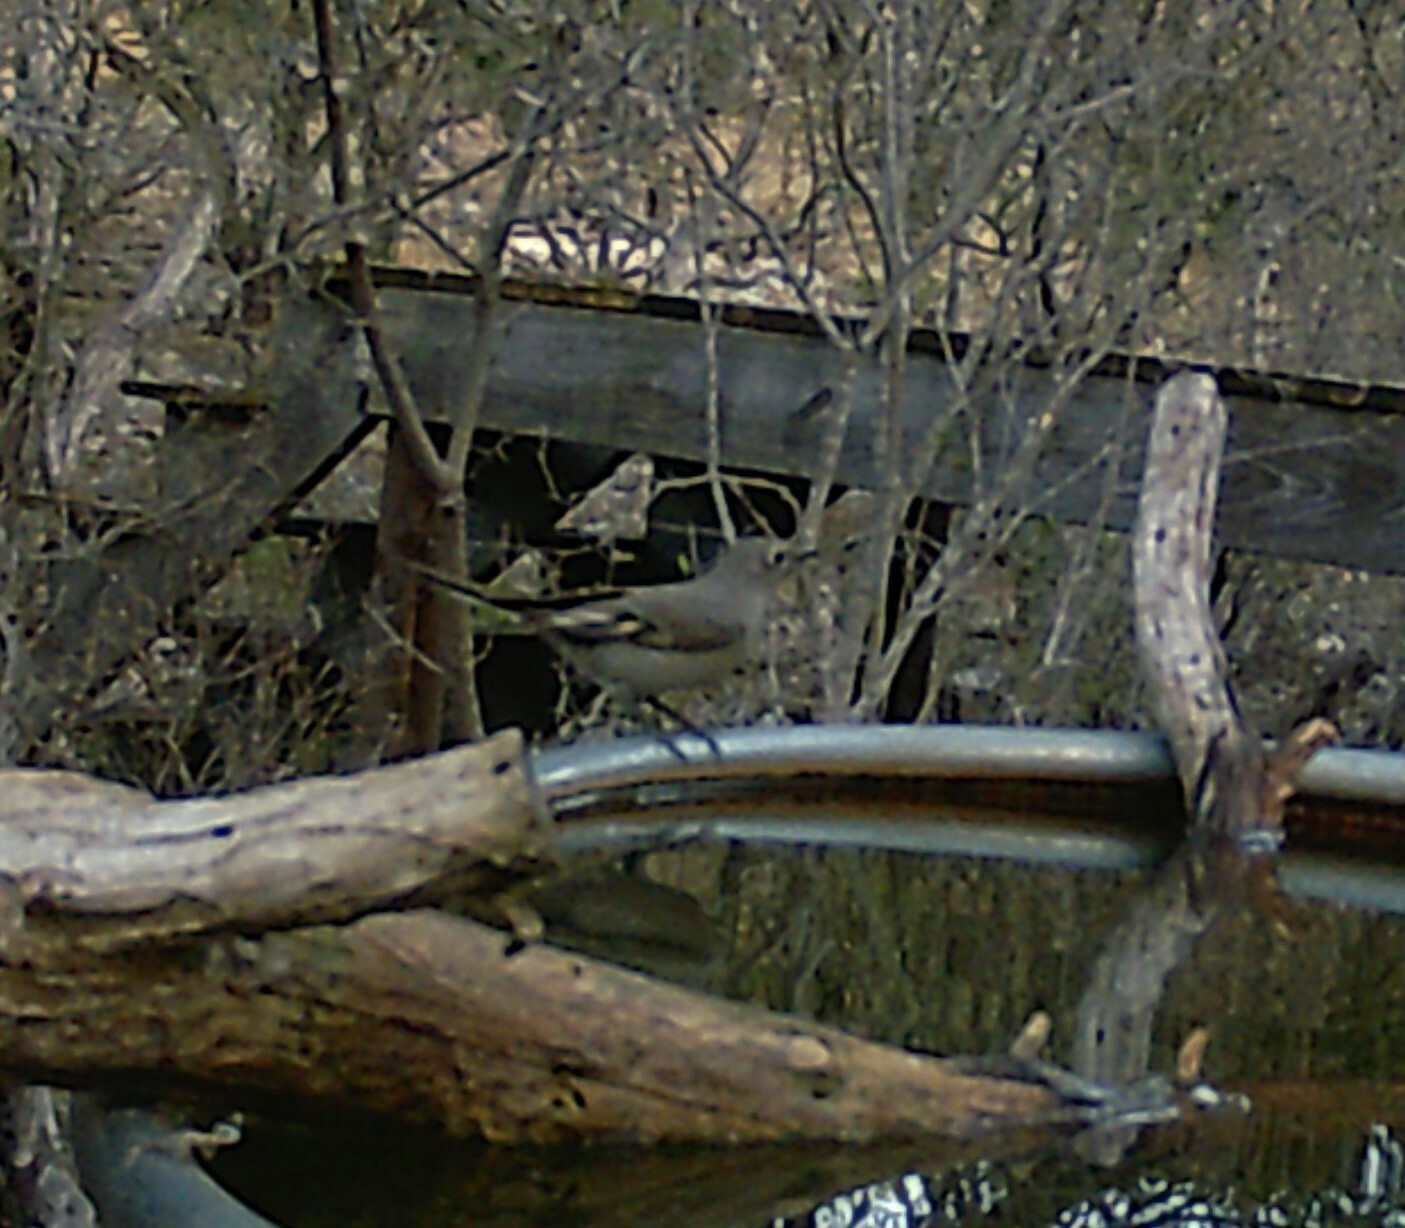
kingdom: Animalia
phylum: Chordata
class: Aves
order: Passeriformes
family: Turdidae
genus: Myadestes
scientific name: Myadestes townsendi
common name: Townsend's solitaire
